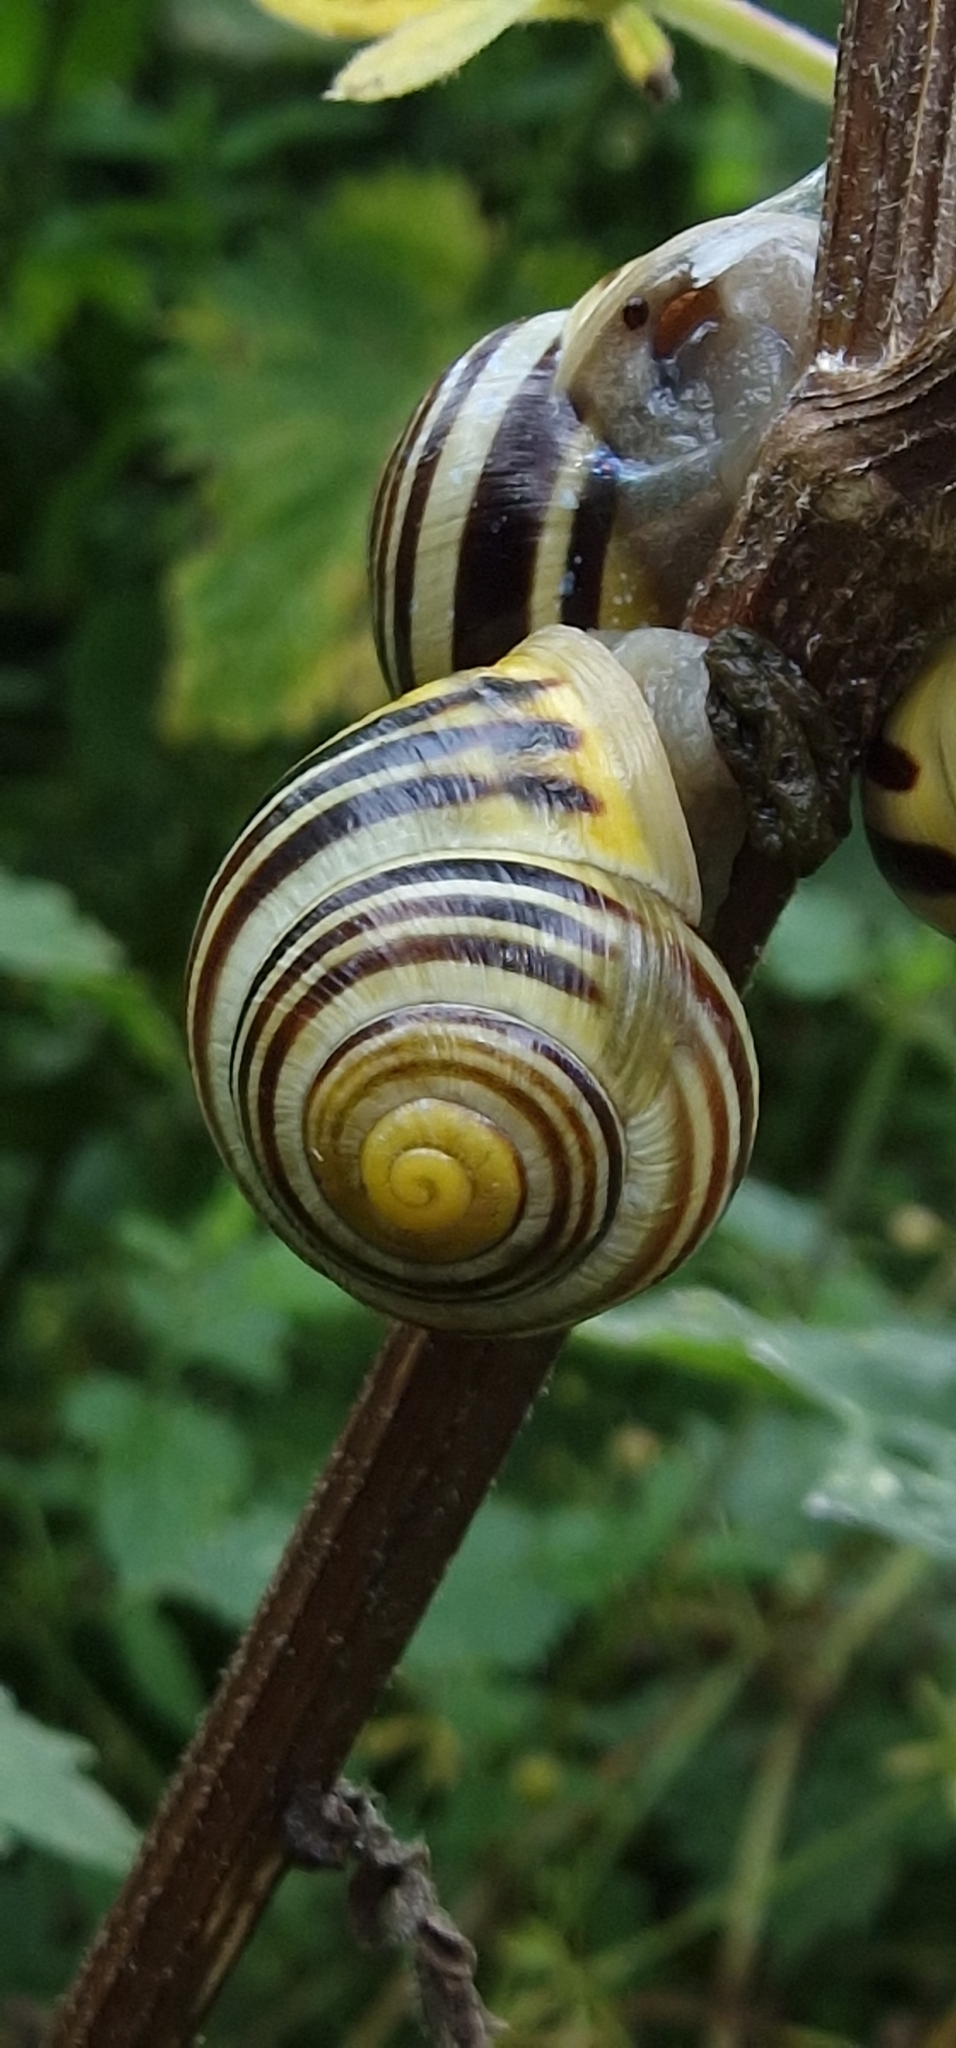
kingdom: Animalia
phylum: Mollusca
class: Gastropoda
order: Stylommatophora
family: Helicidae
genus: Cepaea
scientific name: Cepaea hortensis
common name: White-lip gardensnail
